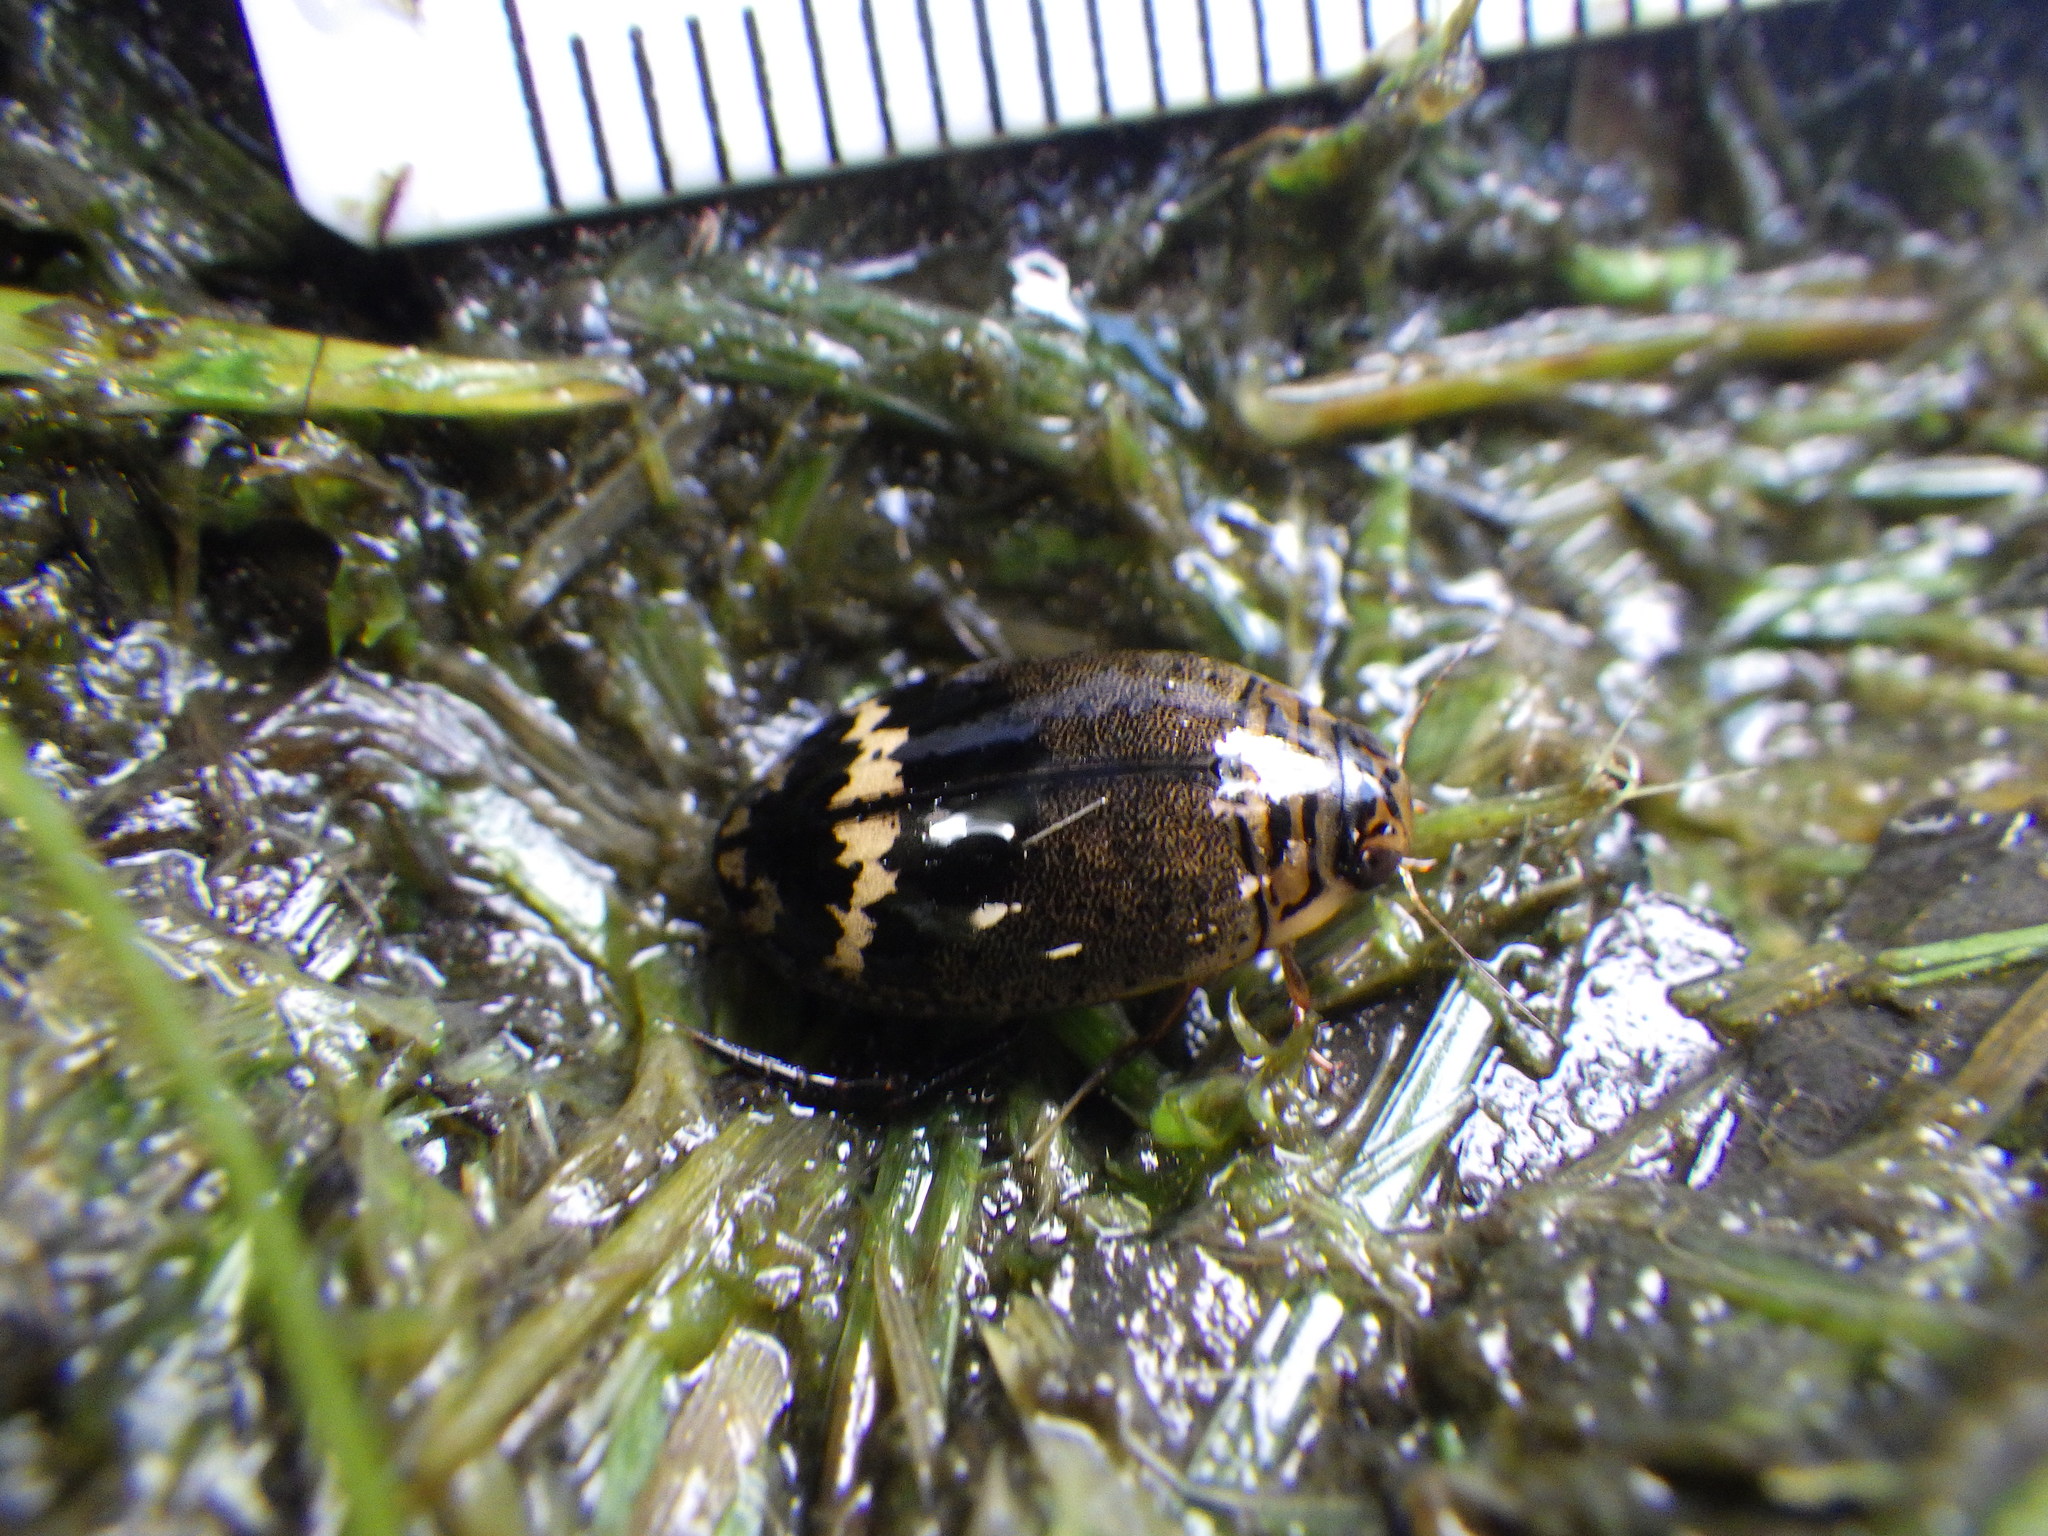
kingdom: Animalia
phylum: Arthropoda
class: Insecta
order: Coleoptera
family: Dytiscidae
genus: Acilius
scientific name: Acilius mediatus
